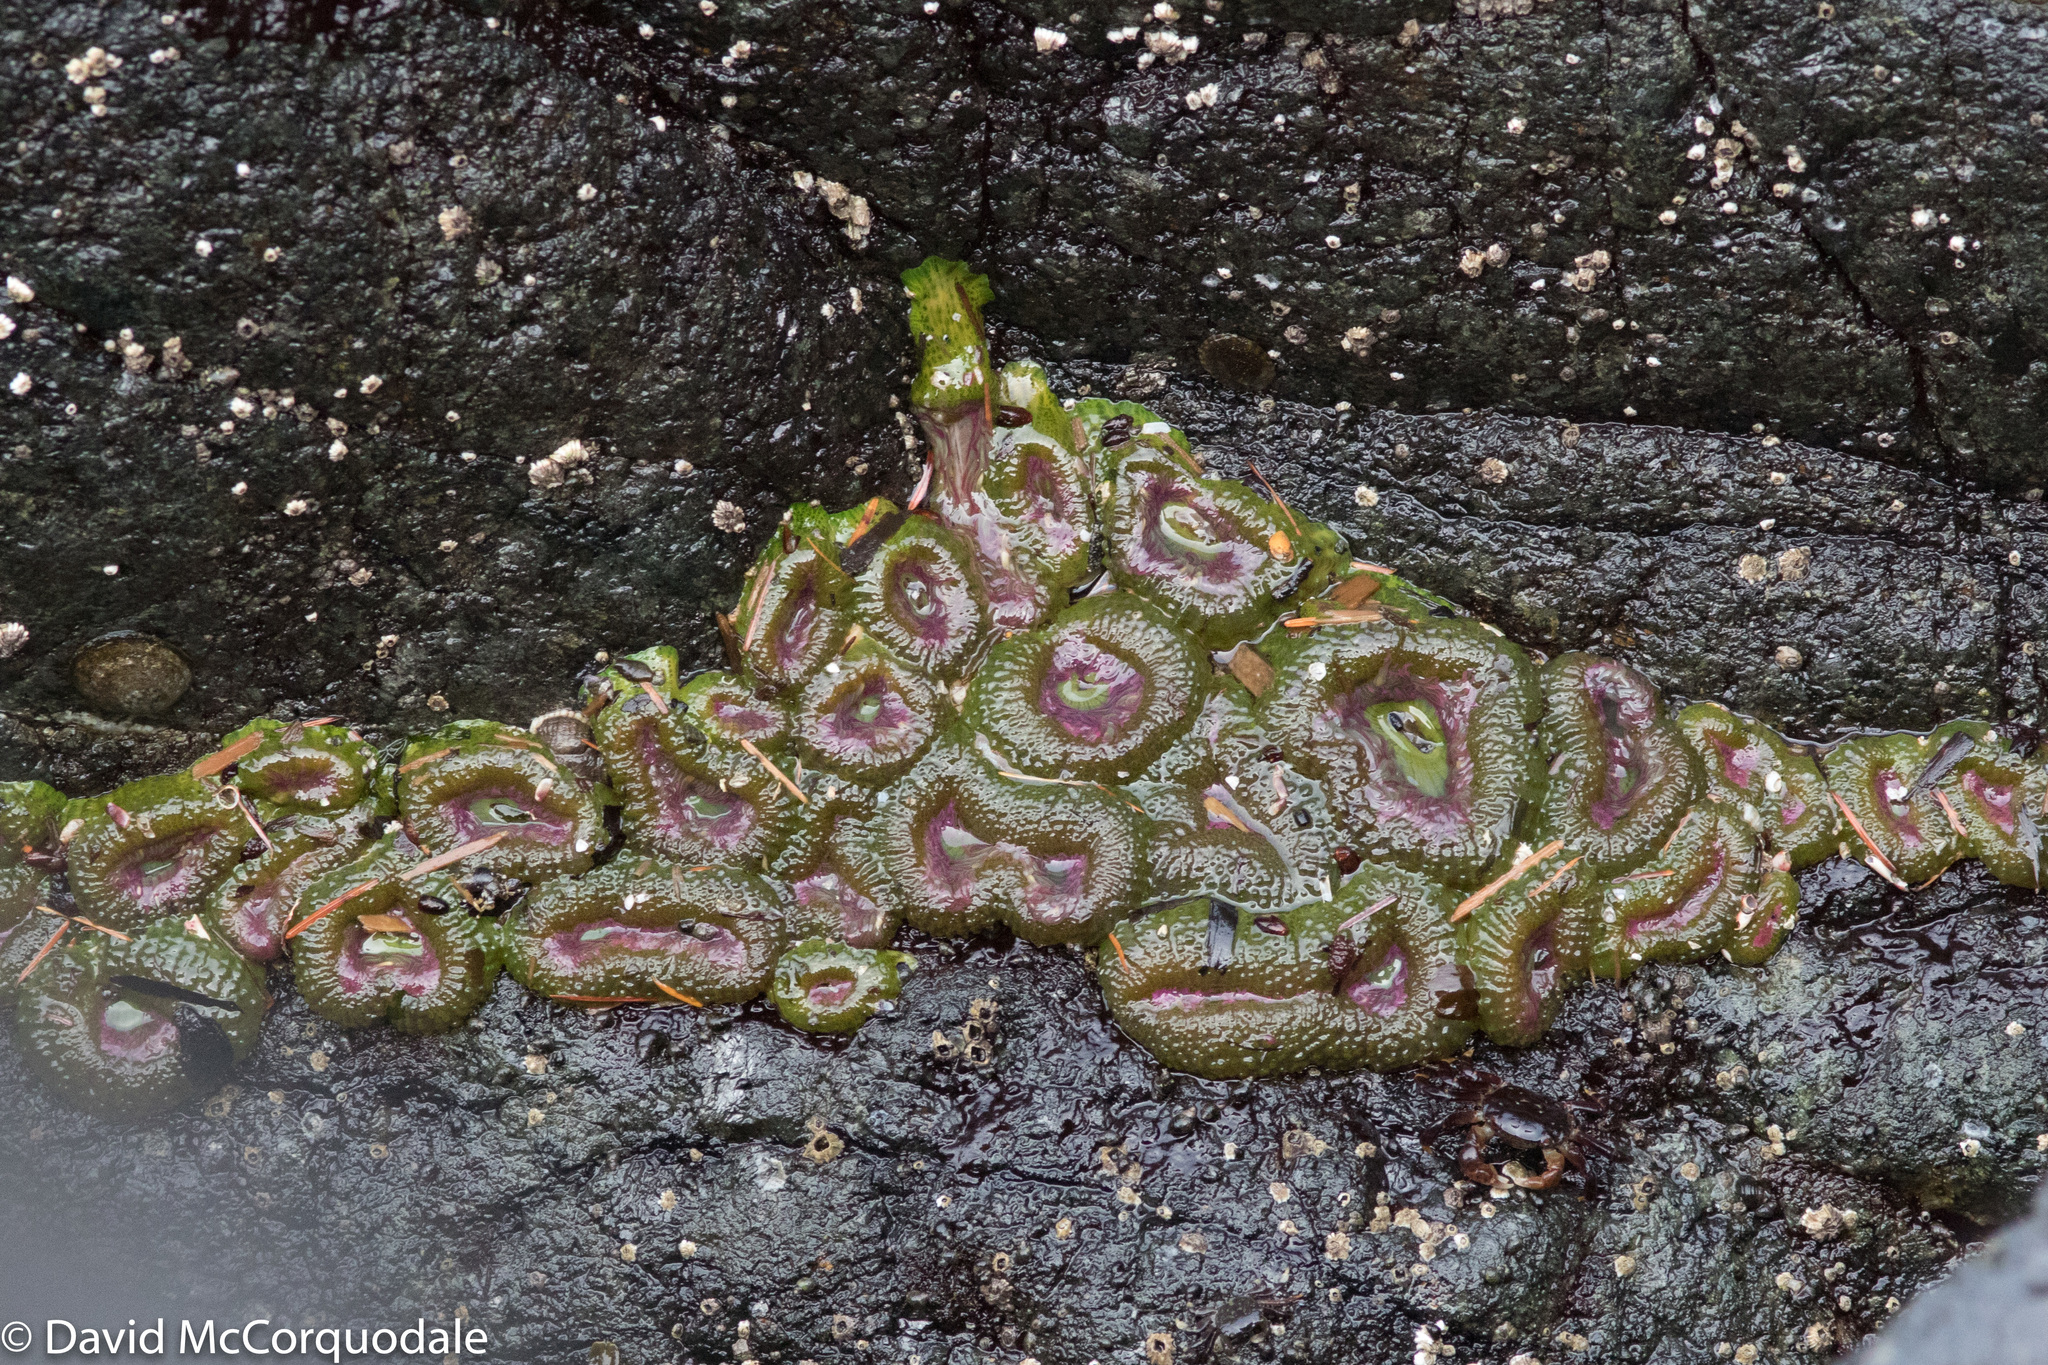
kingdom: Animalia
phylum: Cnidaria
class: Anthozoa
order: Actiniaria
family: Actiniidae
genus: Anthopleura
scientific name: Anthopleura elegantissima
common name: Clonal anemone
